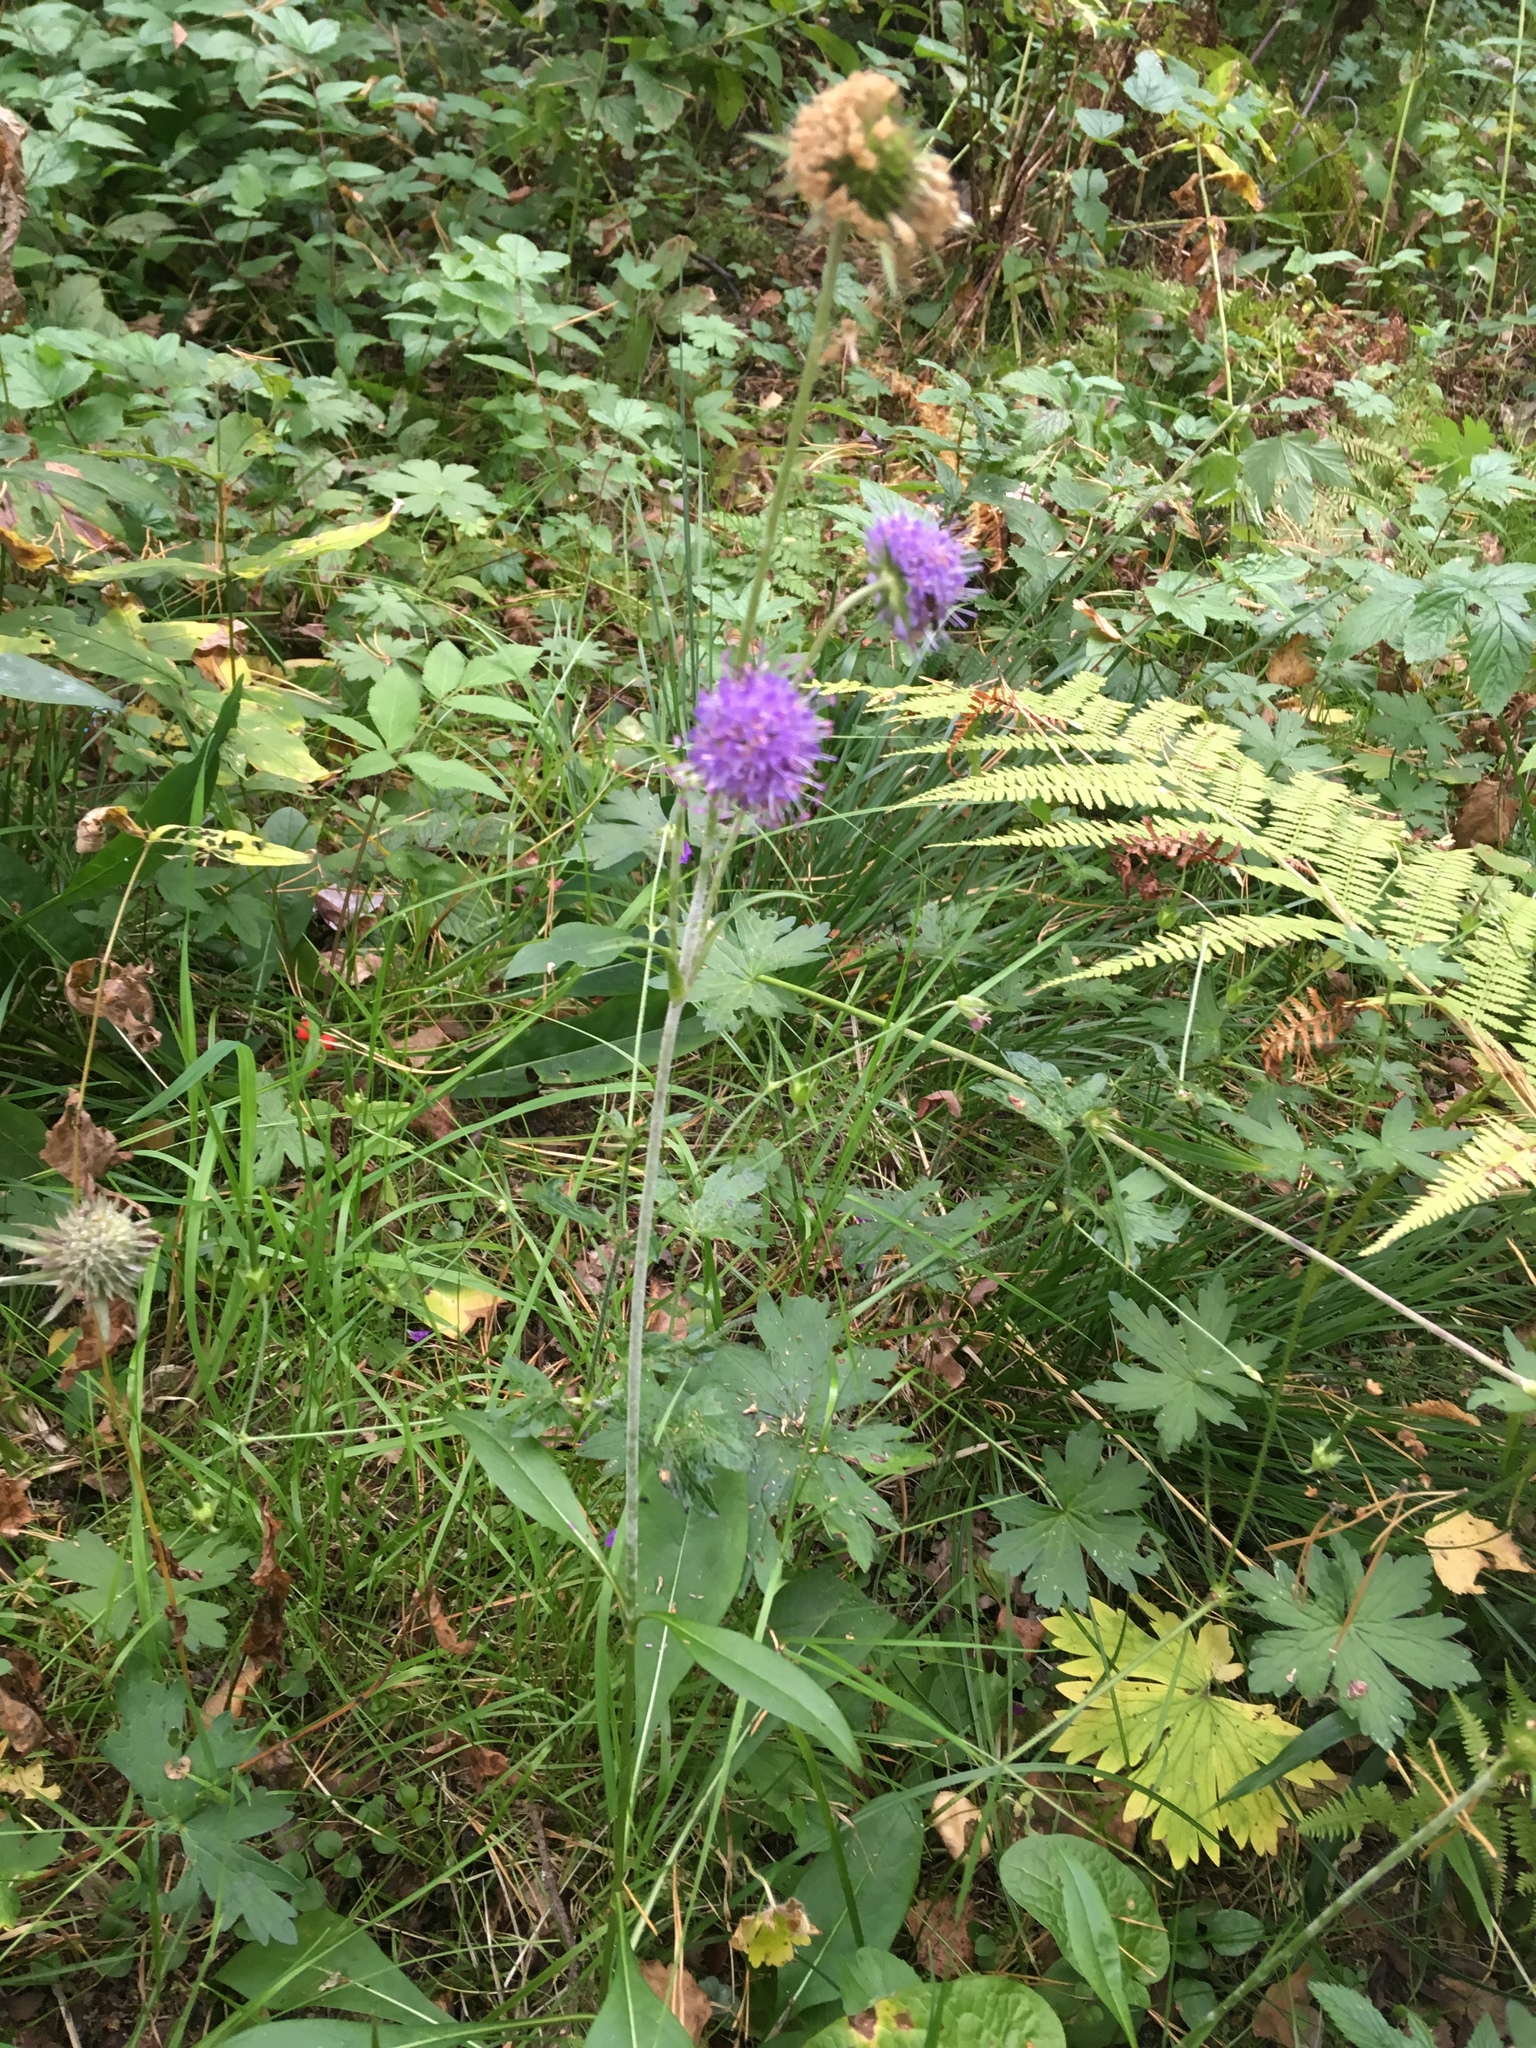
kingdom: Plantae
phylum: Tracheophyta
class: Magnoliopsida
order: Dipsacales
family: Caprifoliaceae
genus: Succisa
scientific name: Succisa pratensis
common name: Devil's-bit
